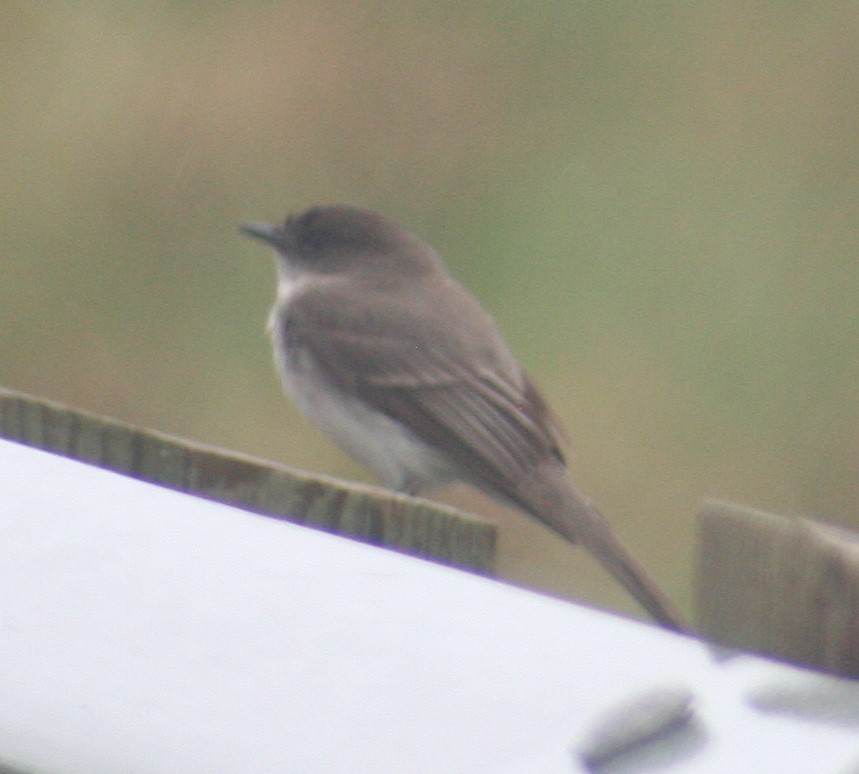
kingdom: Animalia
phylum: Chordata
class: Aves
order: Passeriformes
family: Tyrannidae
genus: Sayornis
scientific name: Sayornis phoebe
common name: Eastern phoebe
